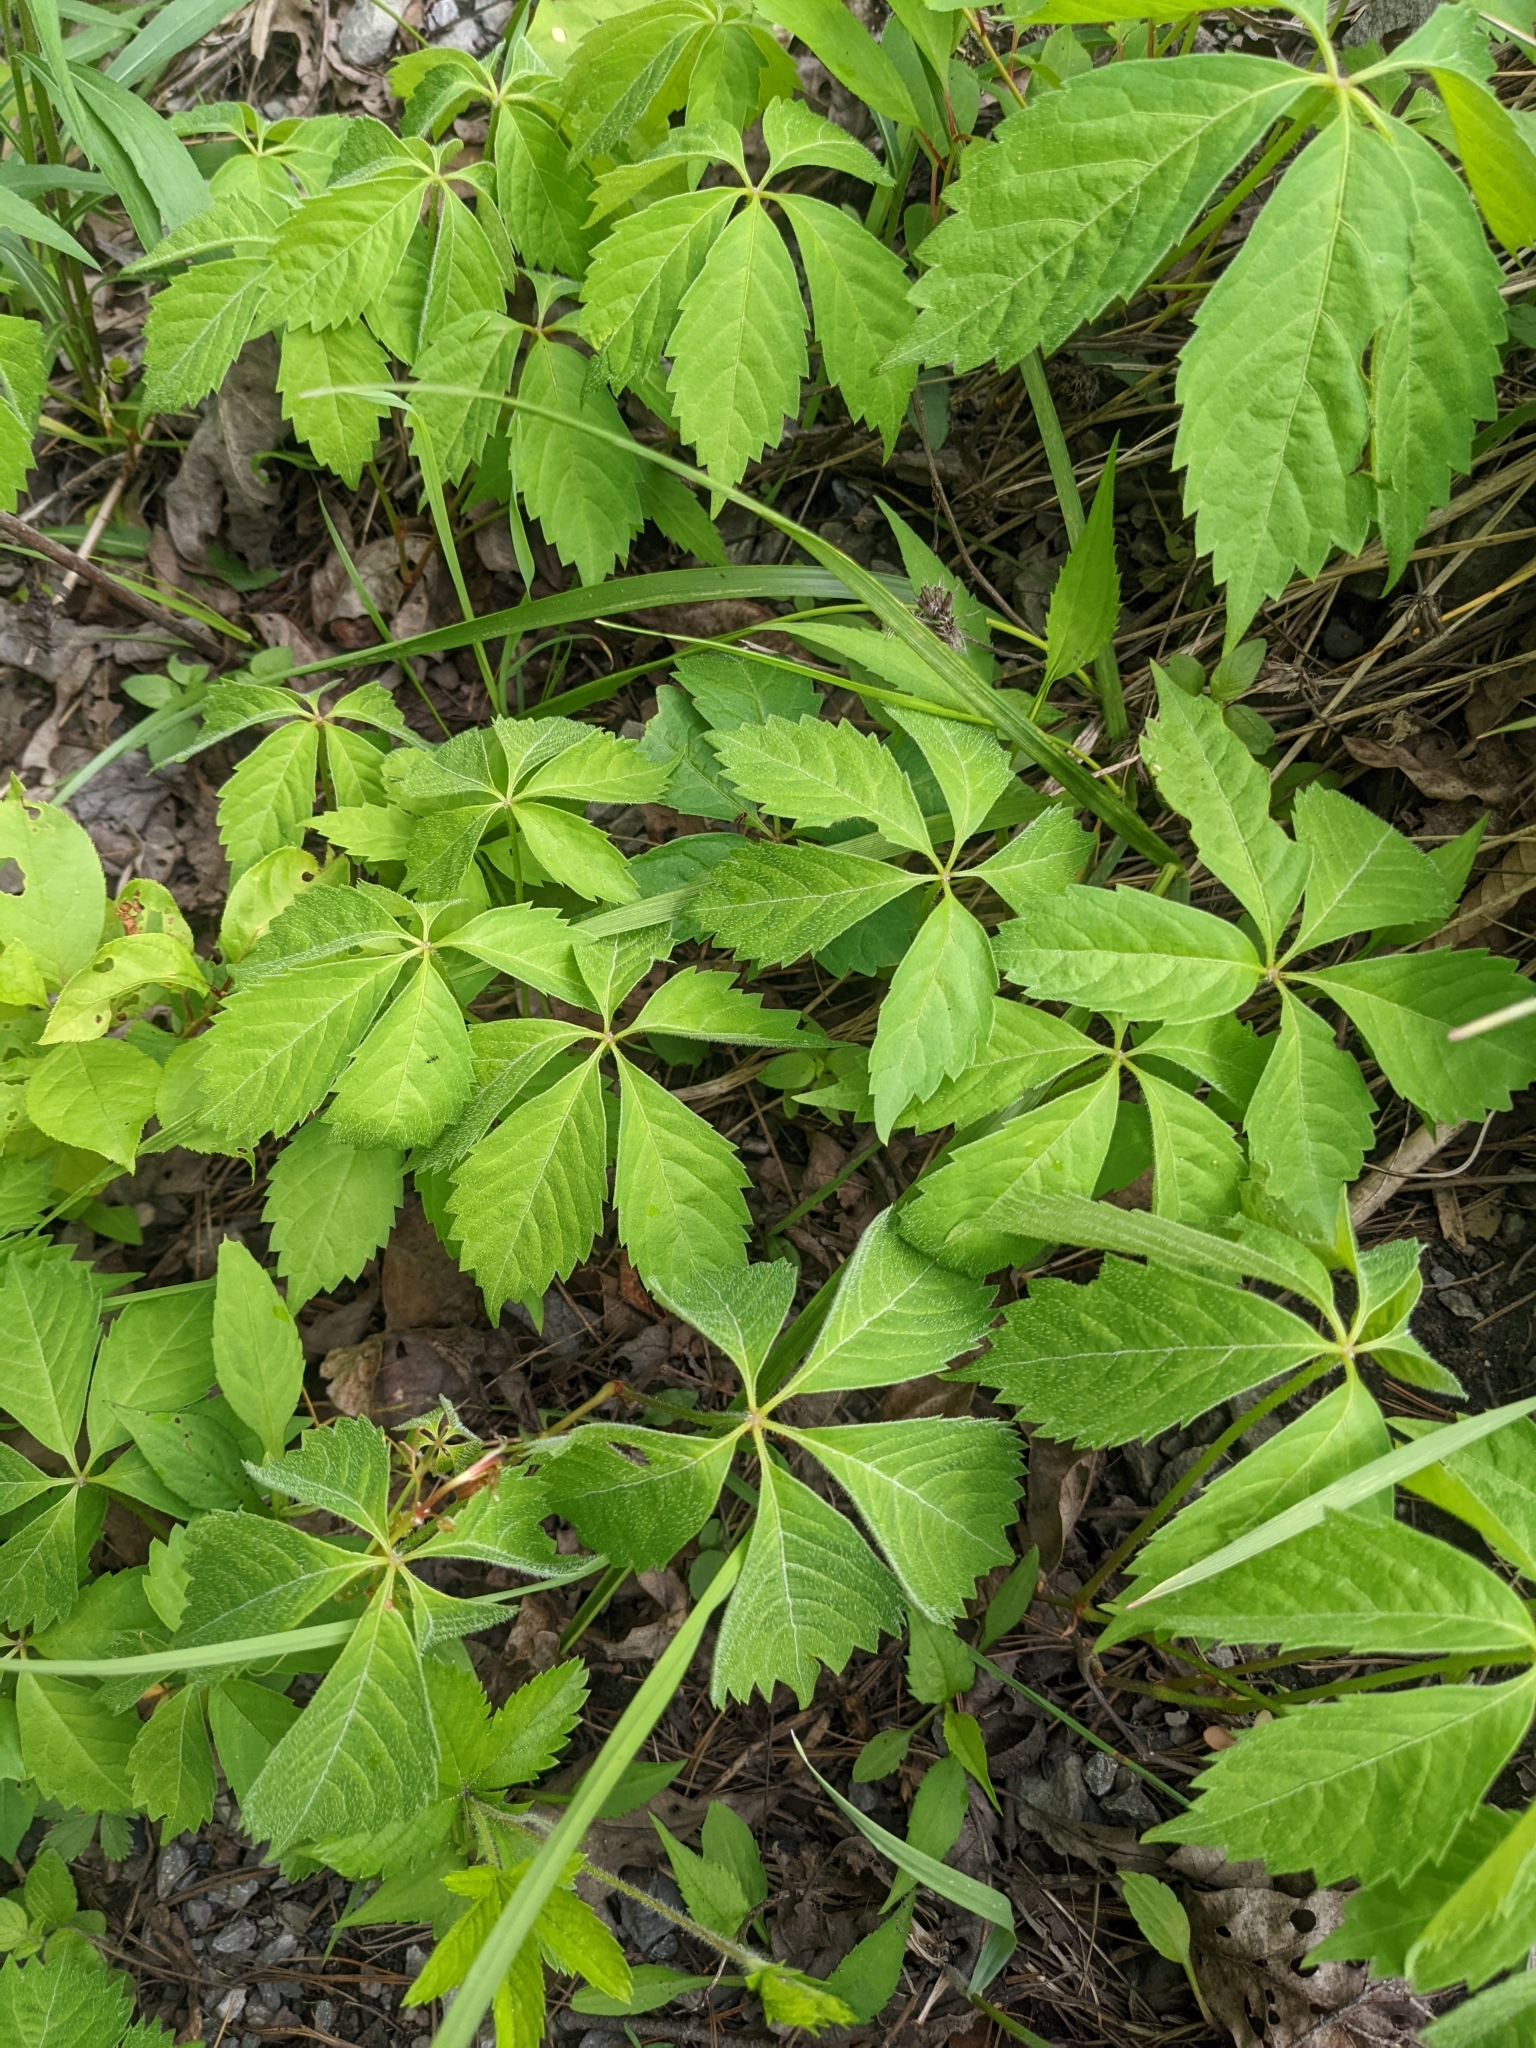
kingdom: Plantae
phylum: Tracheophyta
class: Magnoliopsida
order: Vitales
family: Vitaceae
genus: Parthenocissus
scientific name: Parthenocissus quinquefolia
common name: Virginia-creeper
